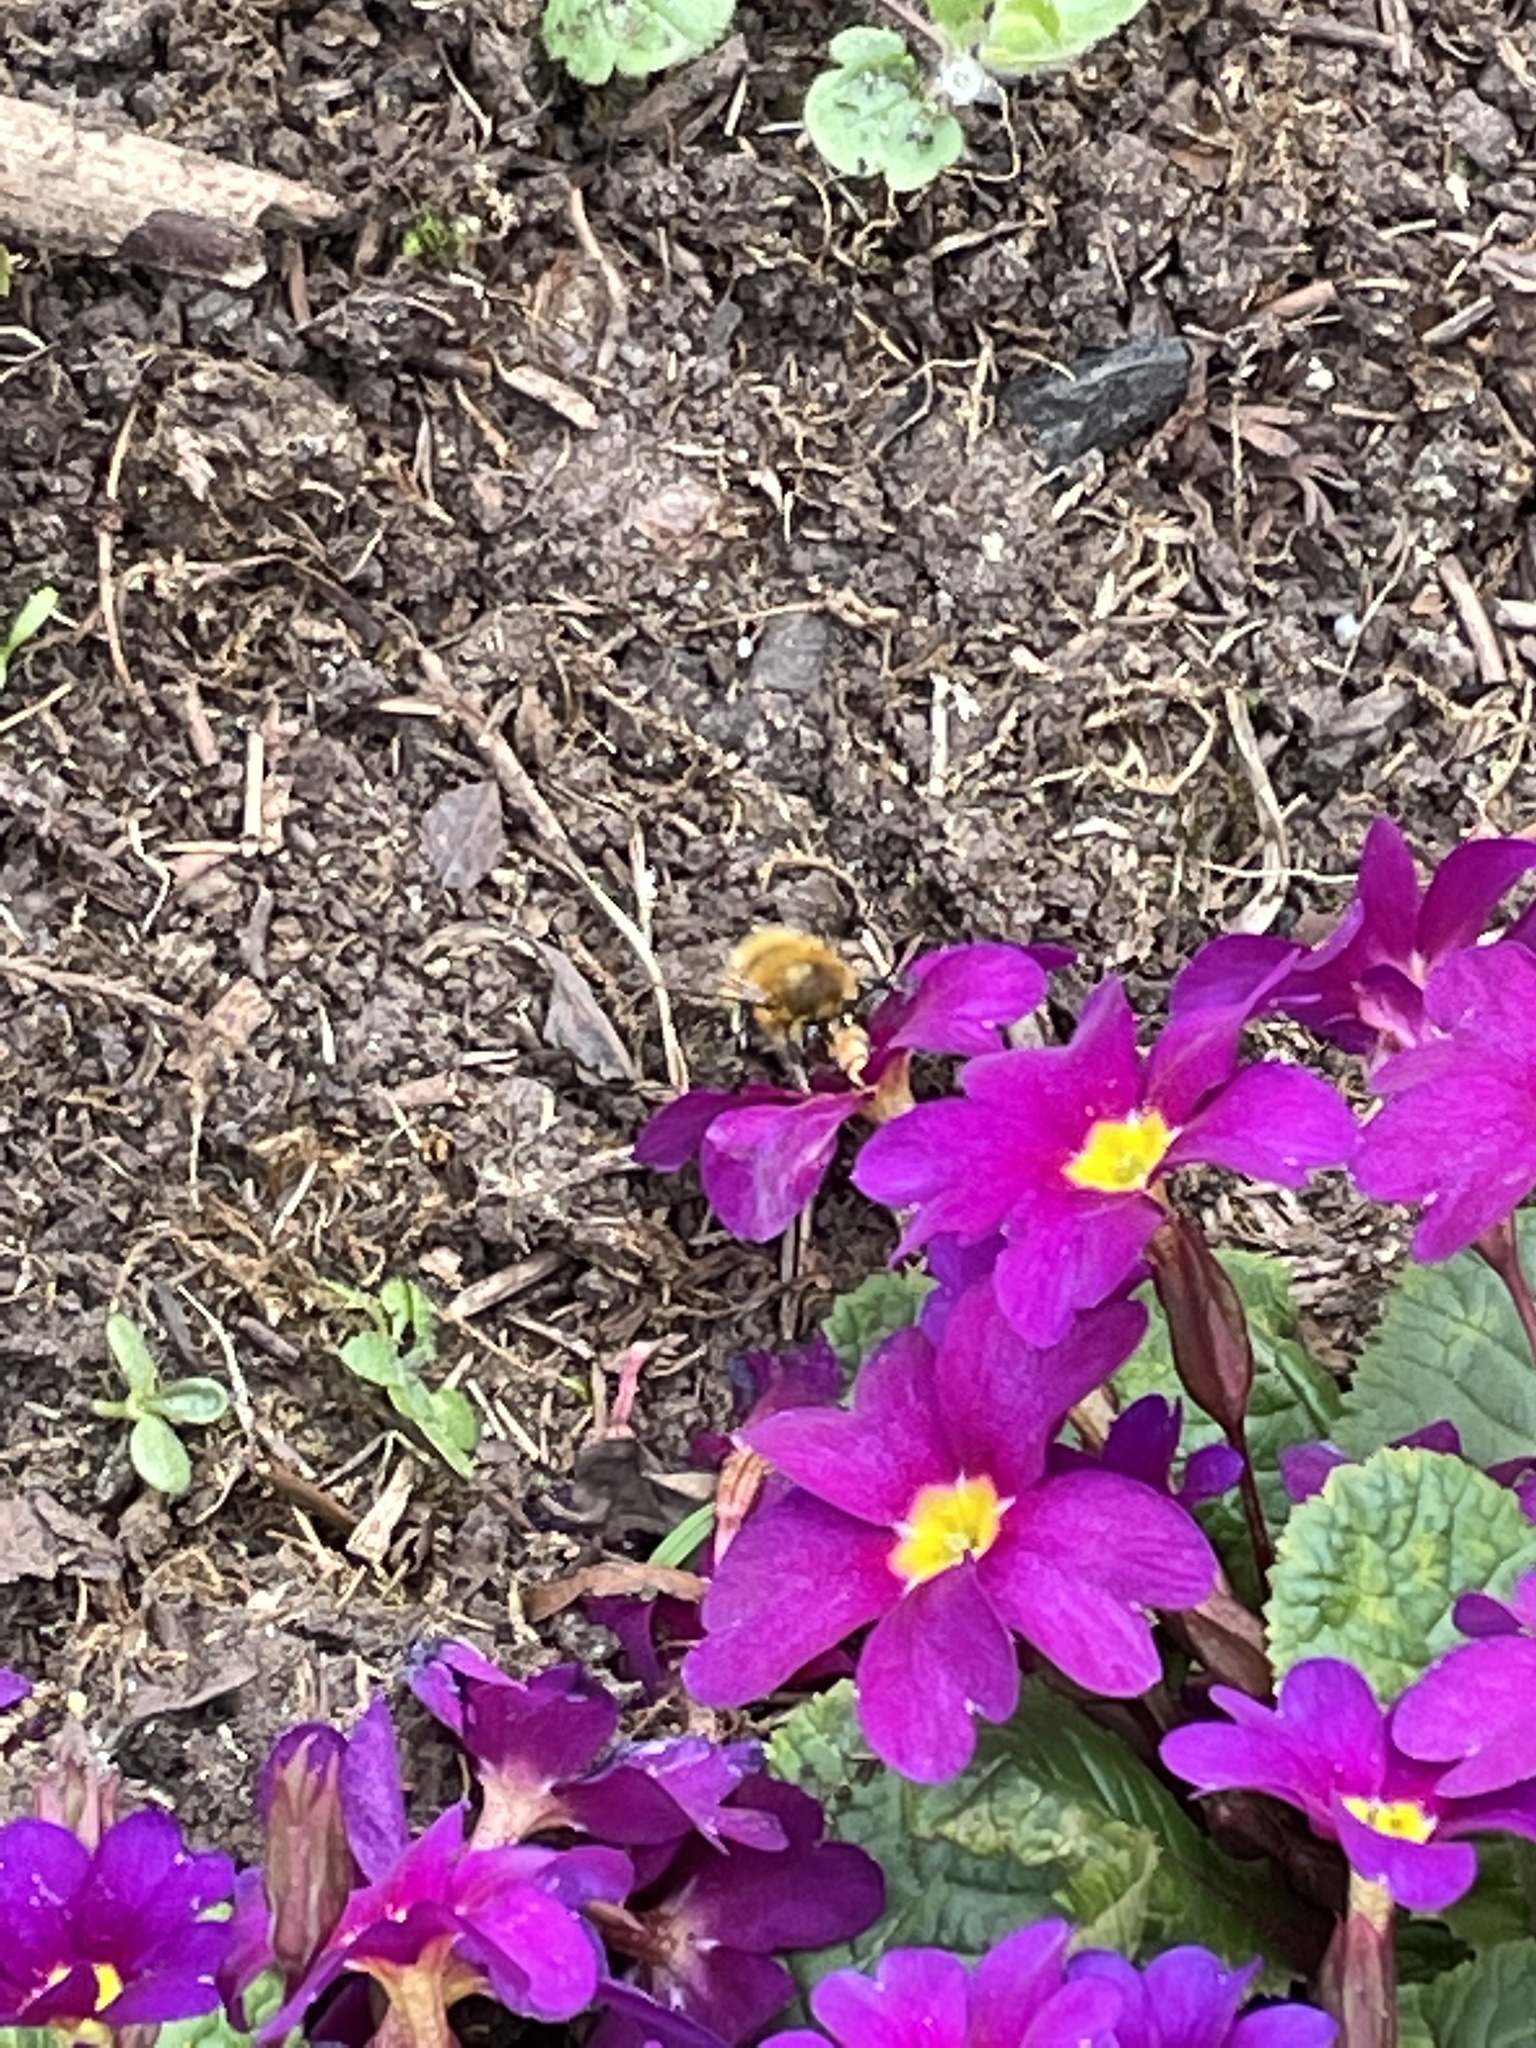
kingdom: Animalia
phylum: Arthropoda
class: Insecta
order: Hymenoptera
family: Apidae
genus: Anthophora
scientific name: Anthophora plumipes
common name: Hairy-footed flower bee
